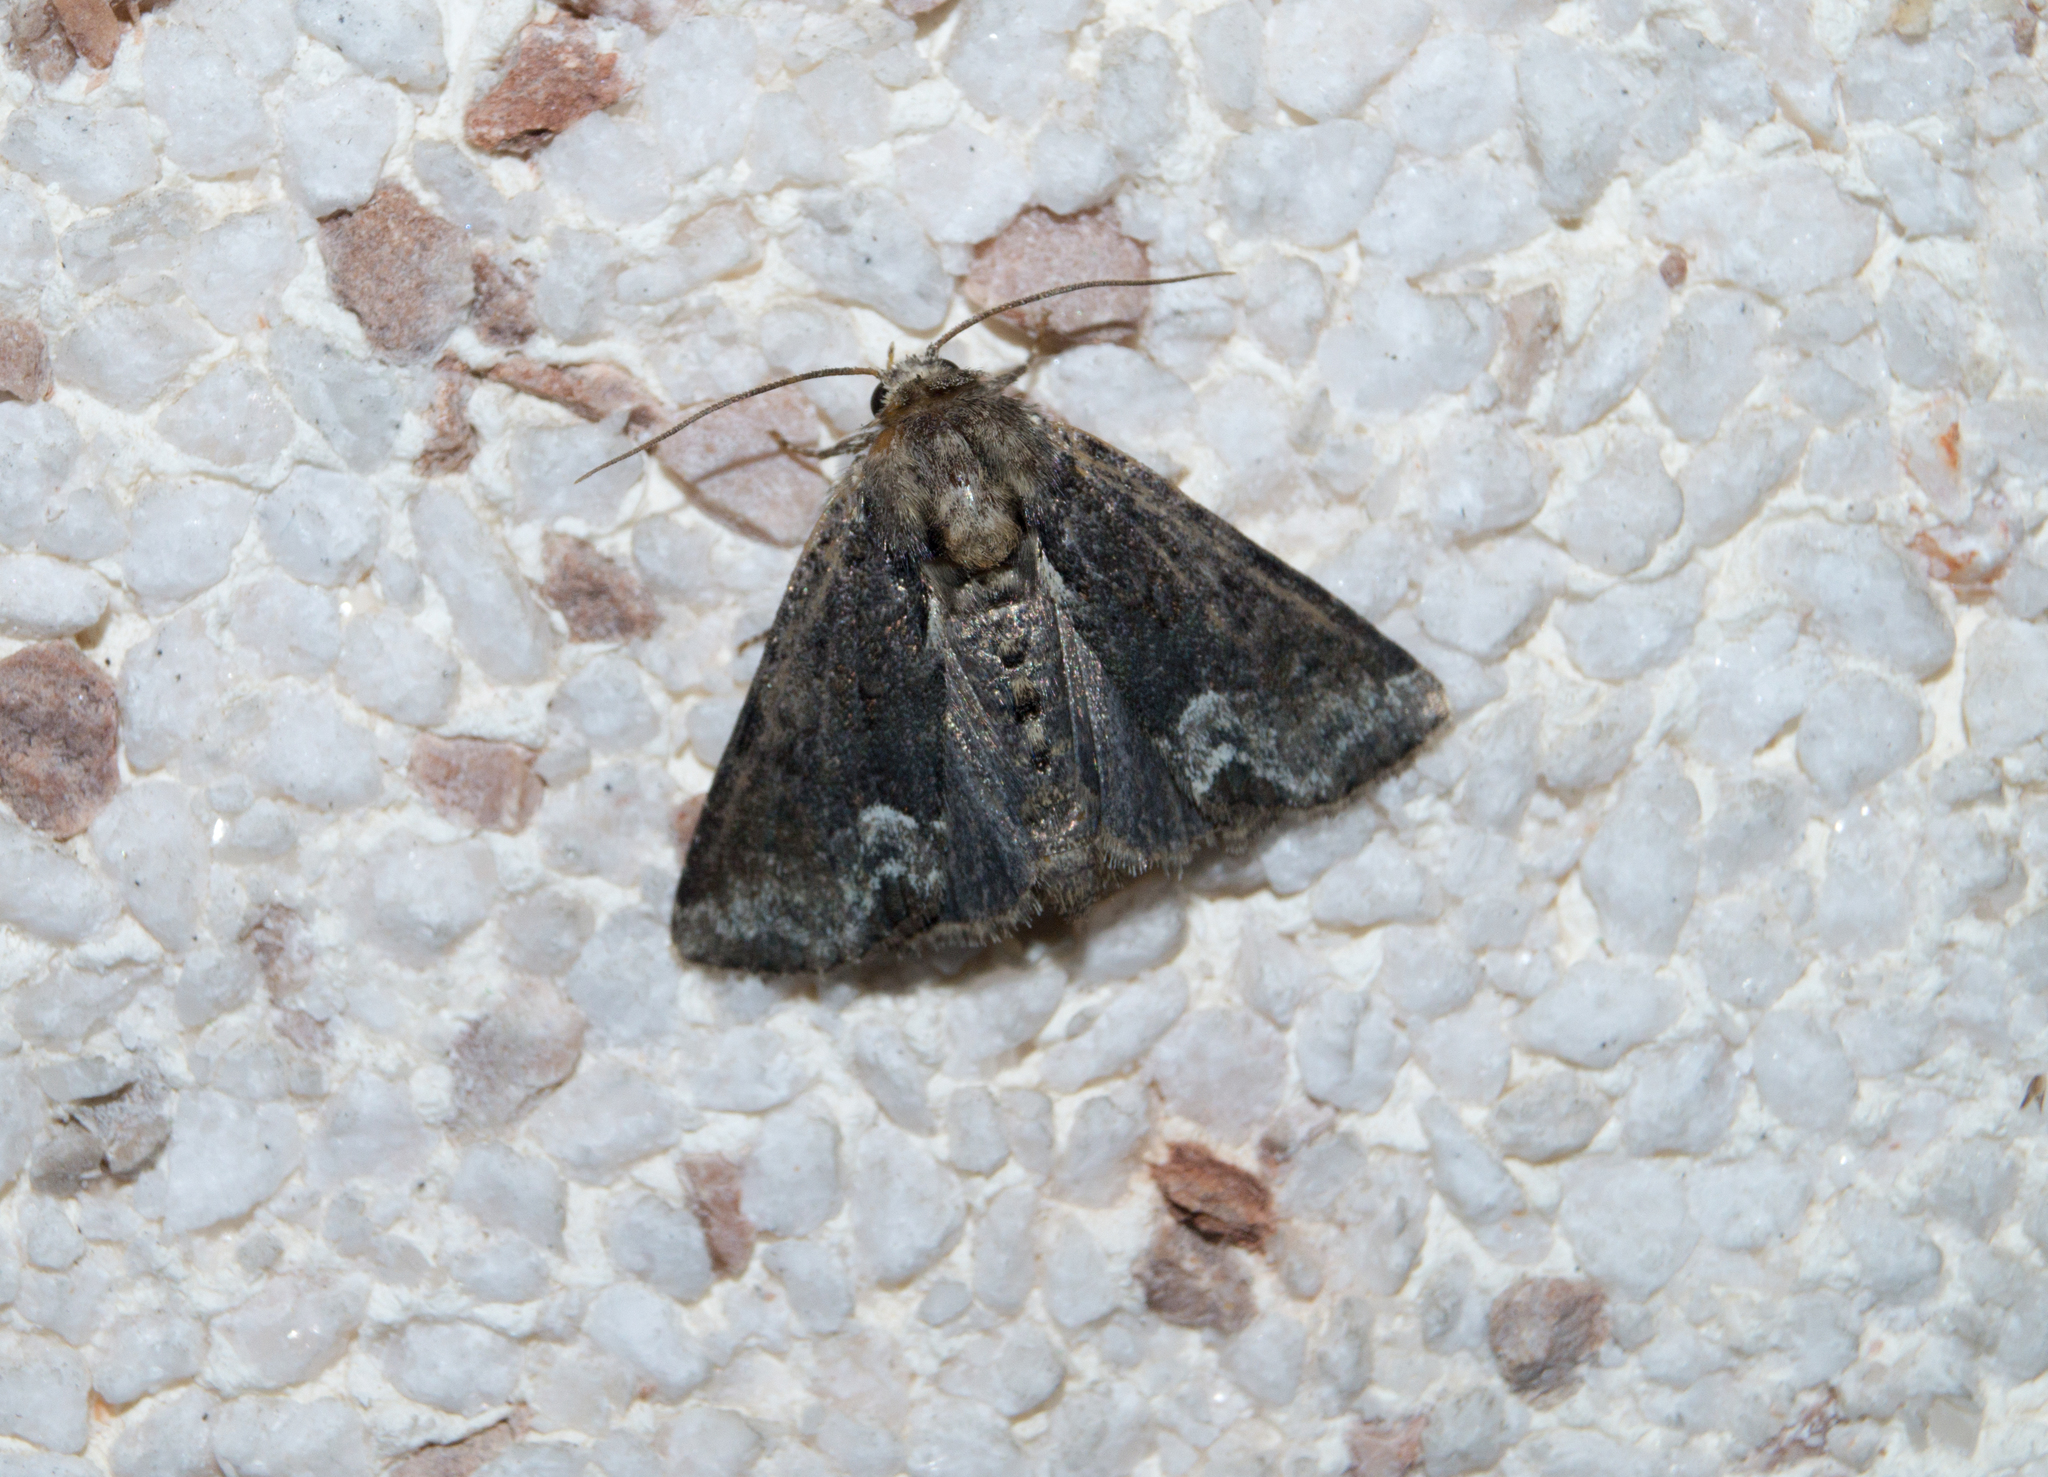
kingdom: Animalia
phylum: Arthropoda
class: Insecta
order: Lepidoptera
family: Noctuidae
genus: Oligia
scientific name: Oligia strigilis
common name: Marbled minor
